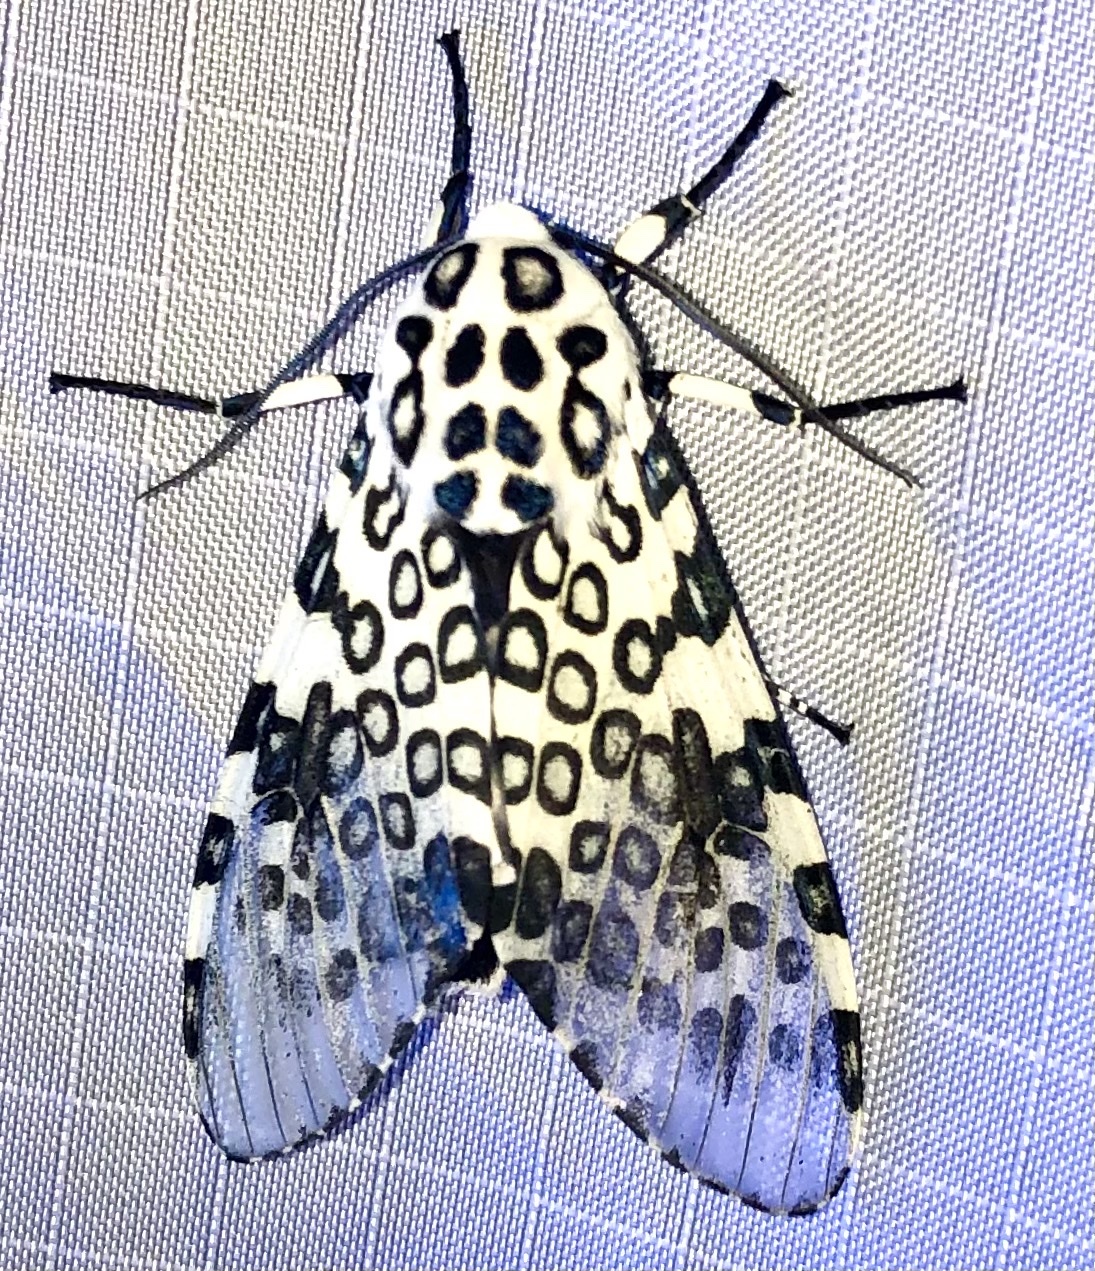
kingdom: Animalia
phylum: Arthropoda
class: Insecta
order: Lepidoptera
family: Erebidae
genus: Hypercompe
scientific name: Hypercompe scribonia
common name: Giant leopard moth
